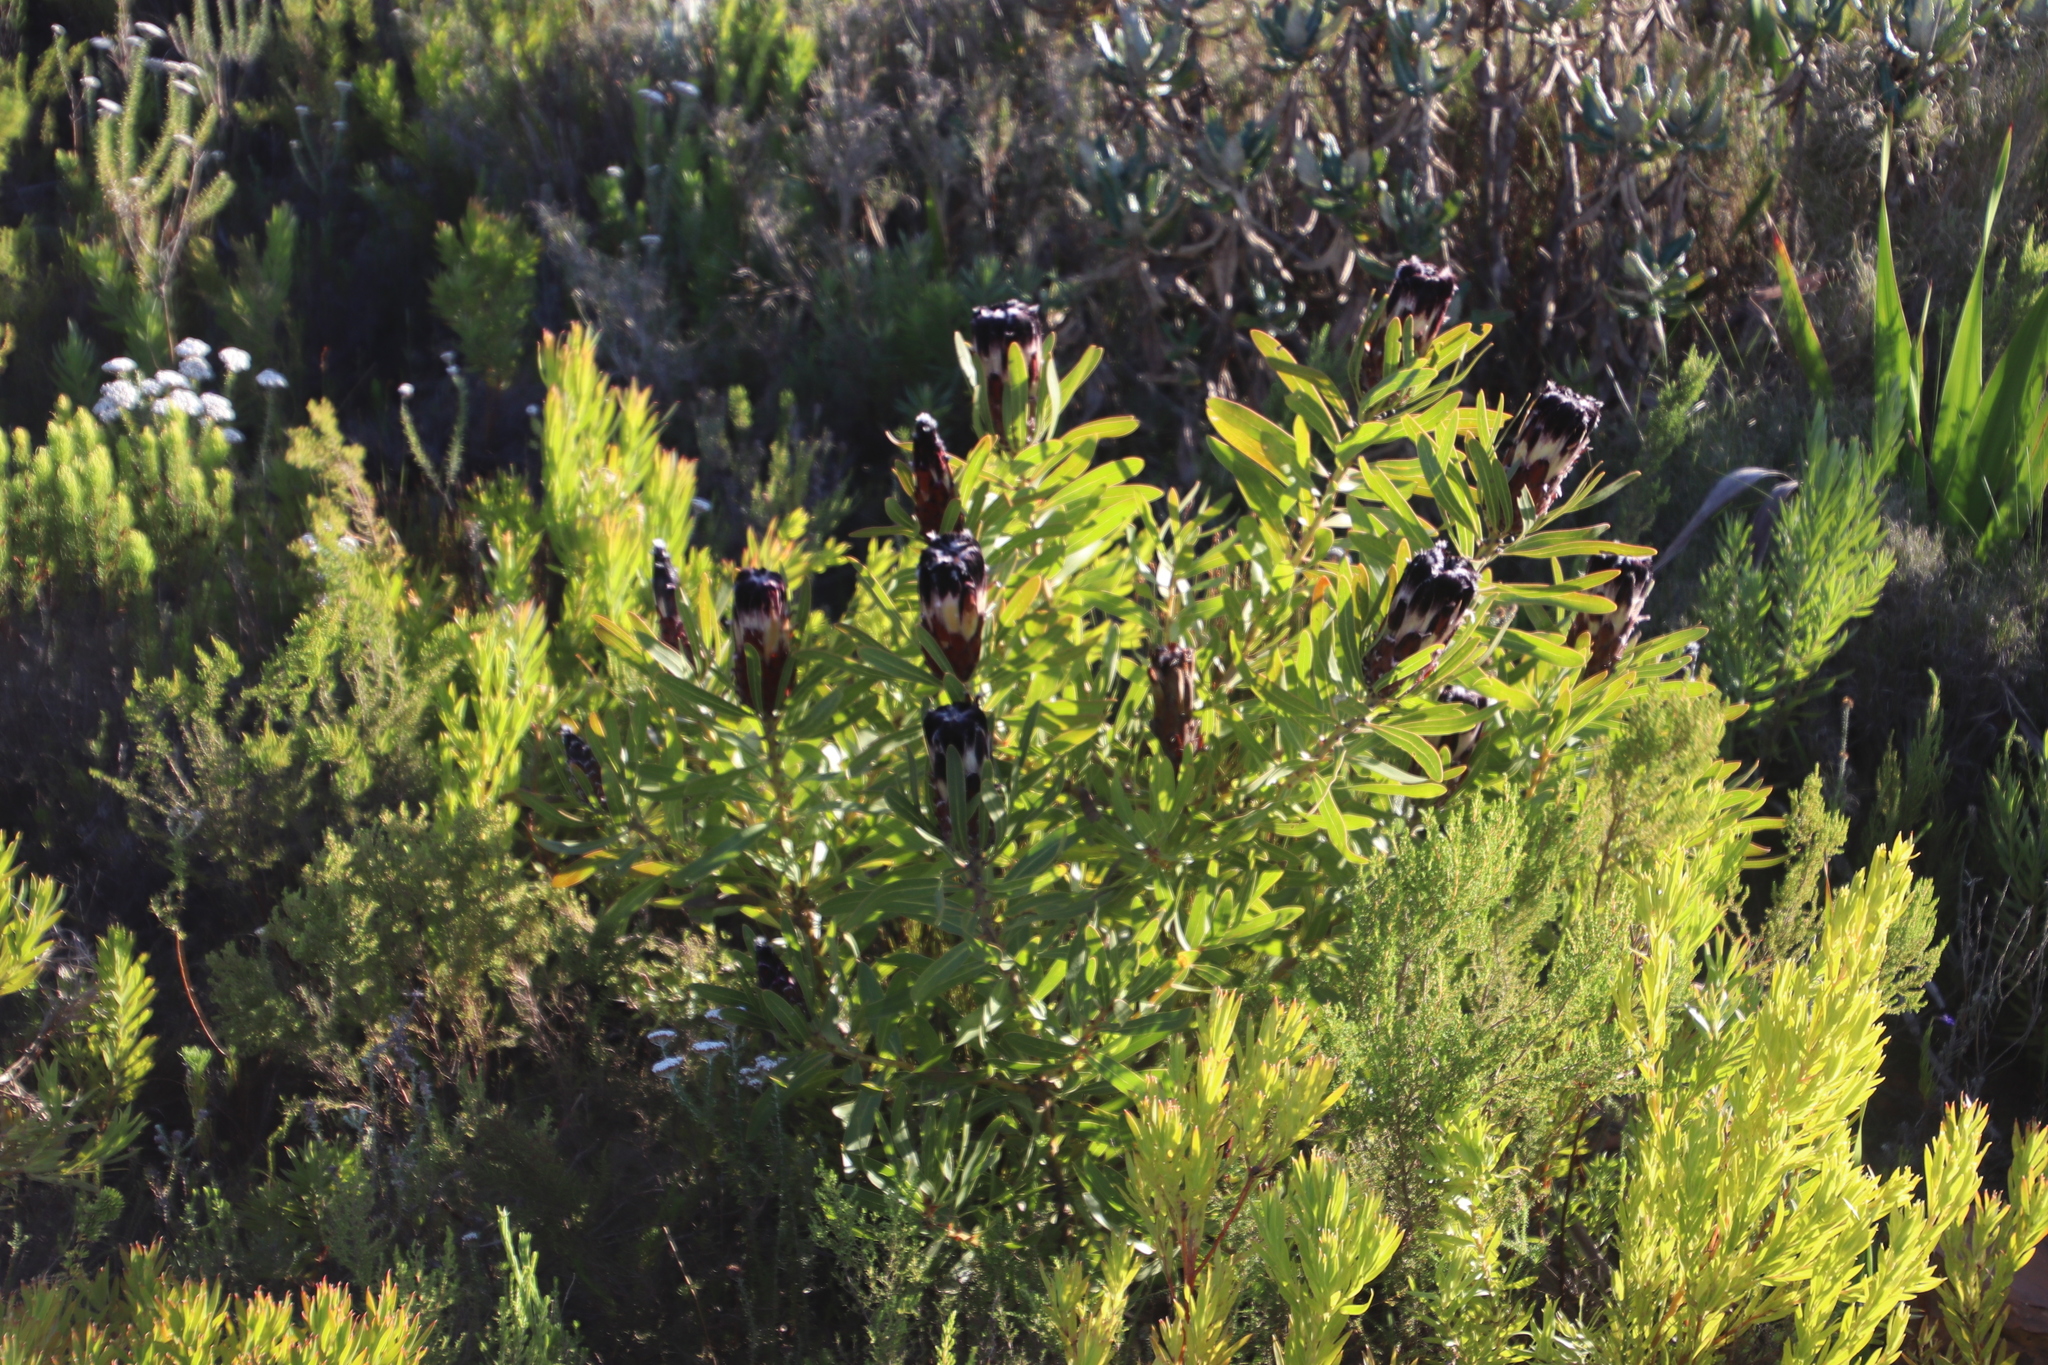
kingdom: Plantae
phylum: Tracheophyta
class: Magnoliopsida
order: Proteales
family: Proteaceae
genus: Protea
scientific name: Protea lepidocarpodendron
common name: Black-bearded protea
